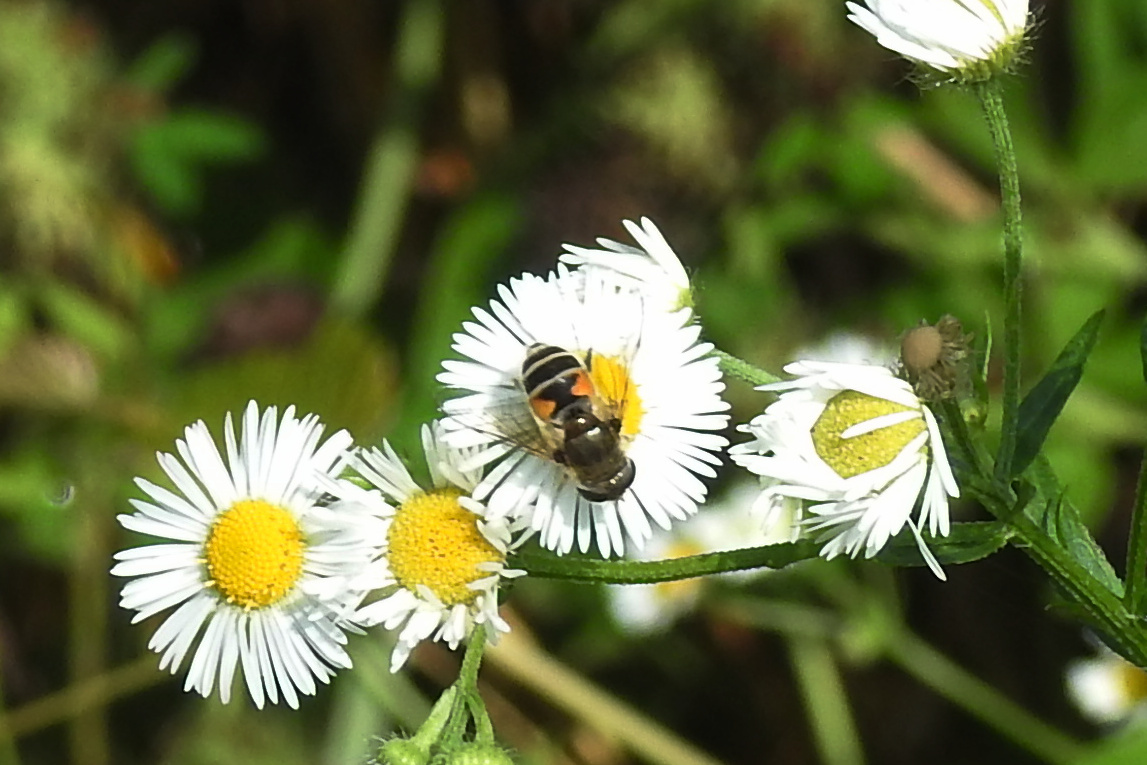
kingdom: Animalia
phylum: Arthropoda
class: Insecta
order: Diptera
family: Syrphidae
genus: Eristalis
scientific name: Eristalis arbustorum
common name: Hover fly
